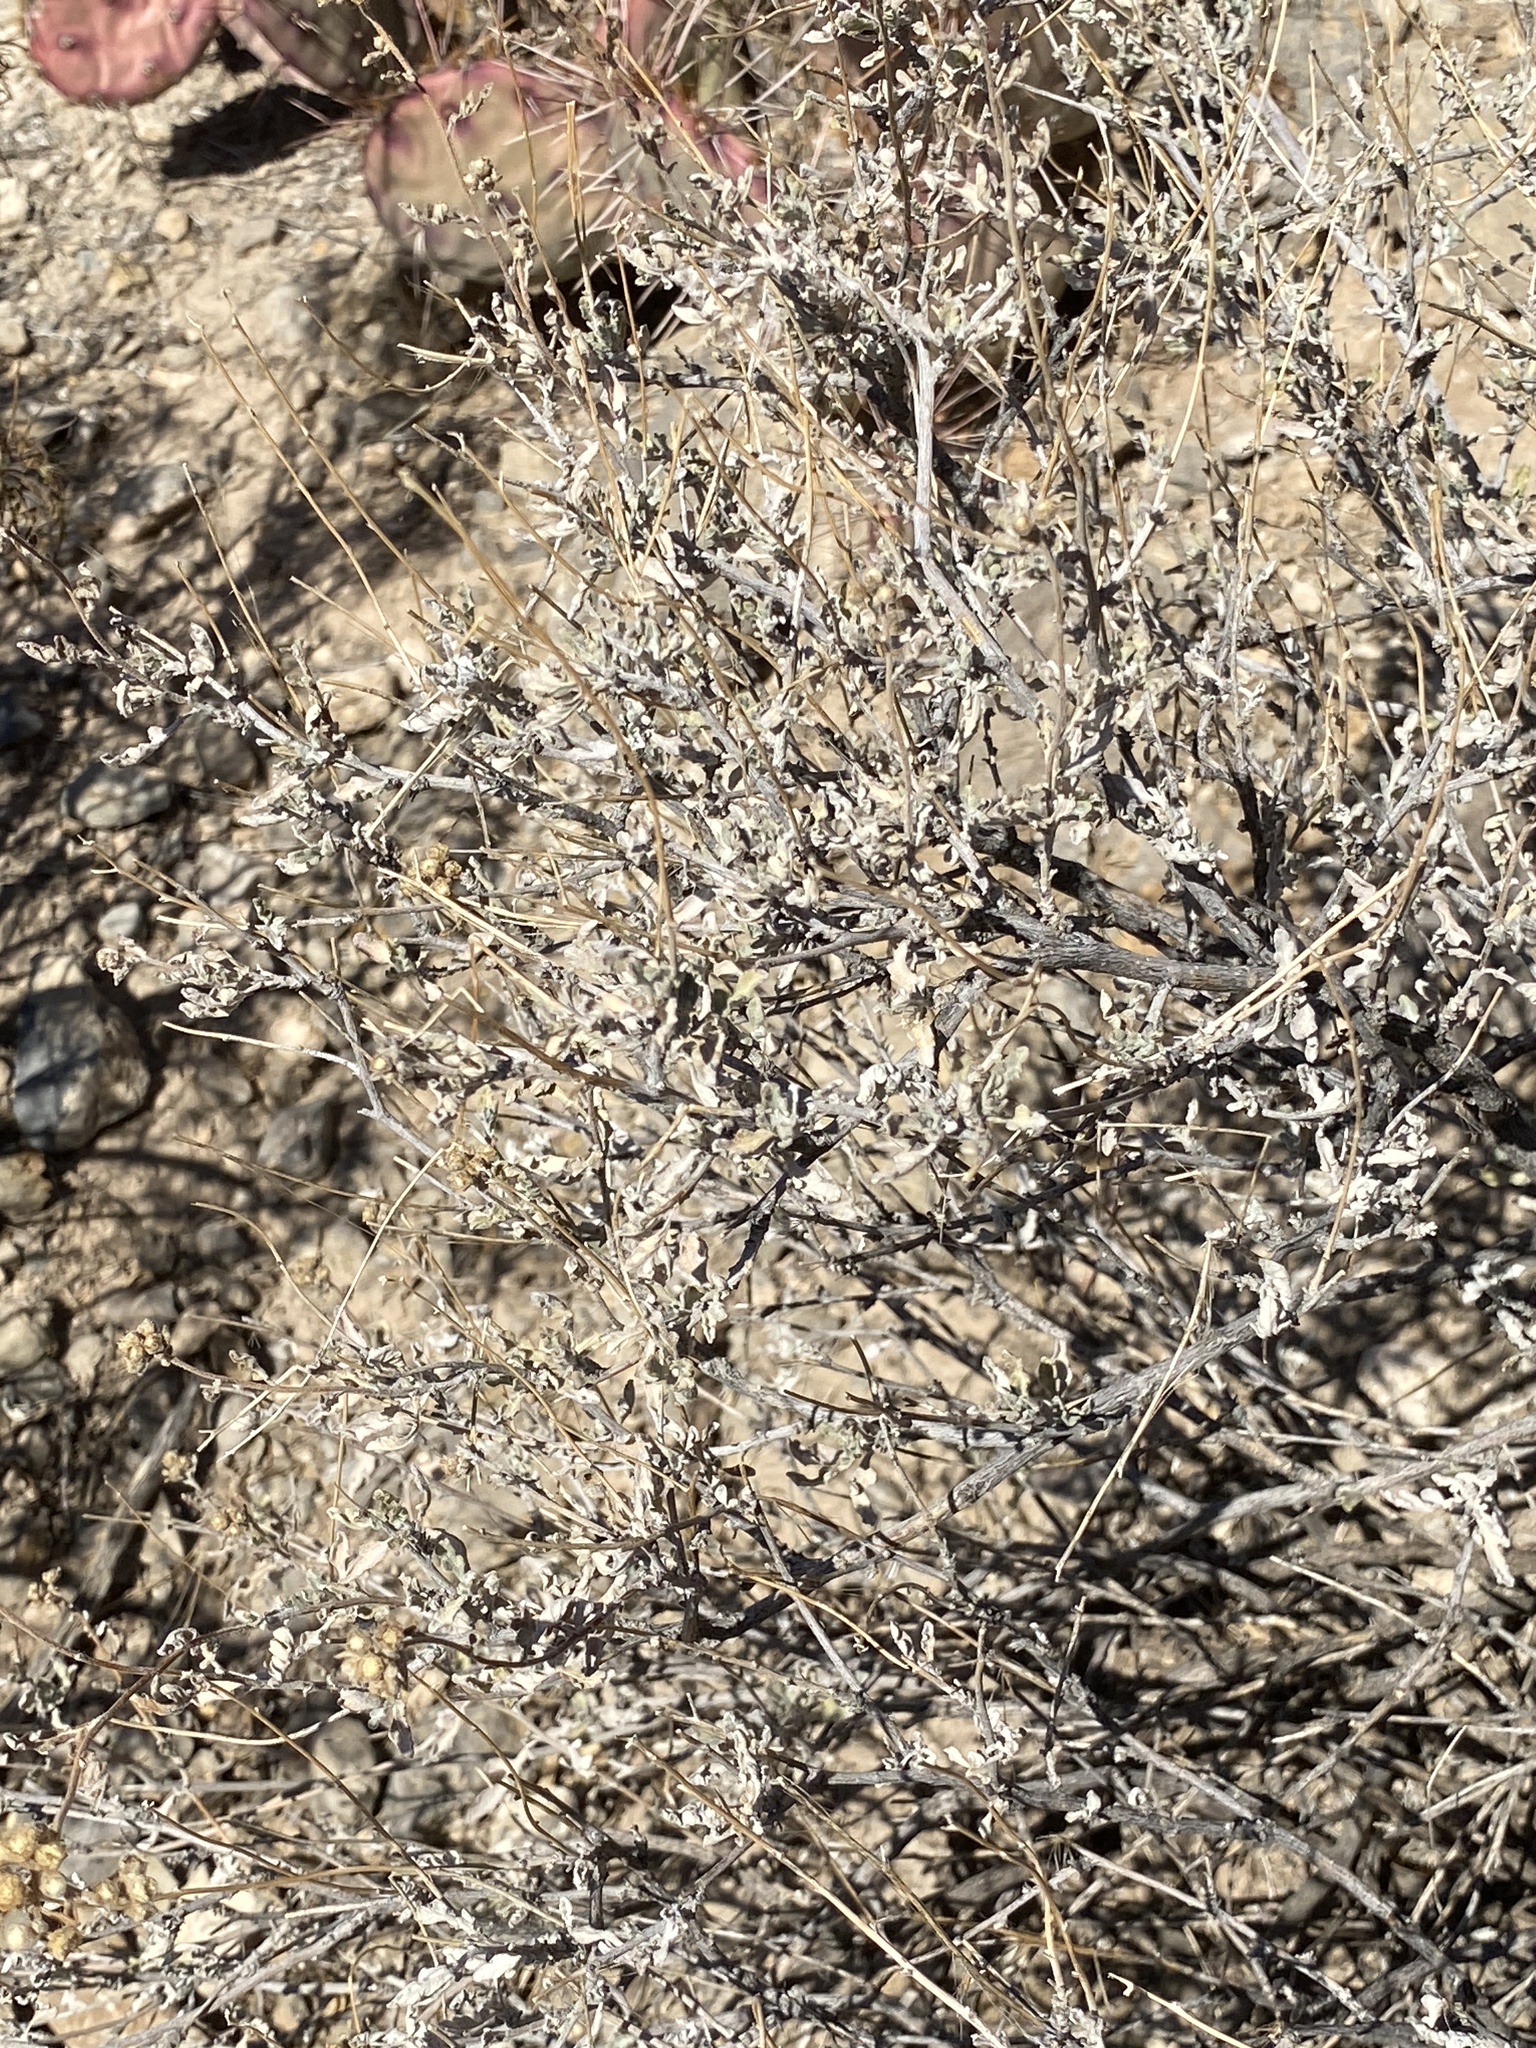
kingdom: Plantae
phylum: Tracheophyta
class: Magnoliopsida
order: Asterales
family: Asteraceae
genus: Parthenium
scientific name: Parthenium incanum
